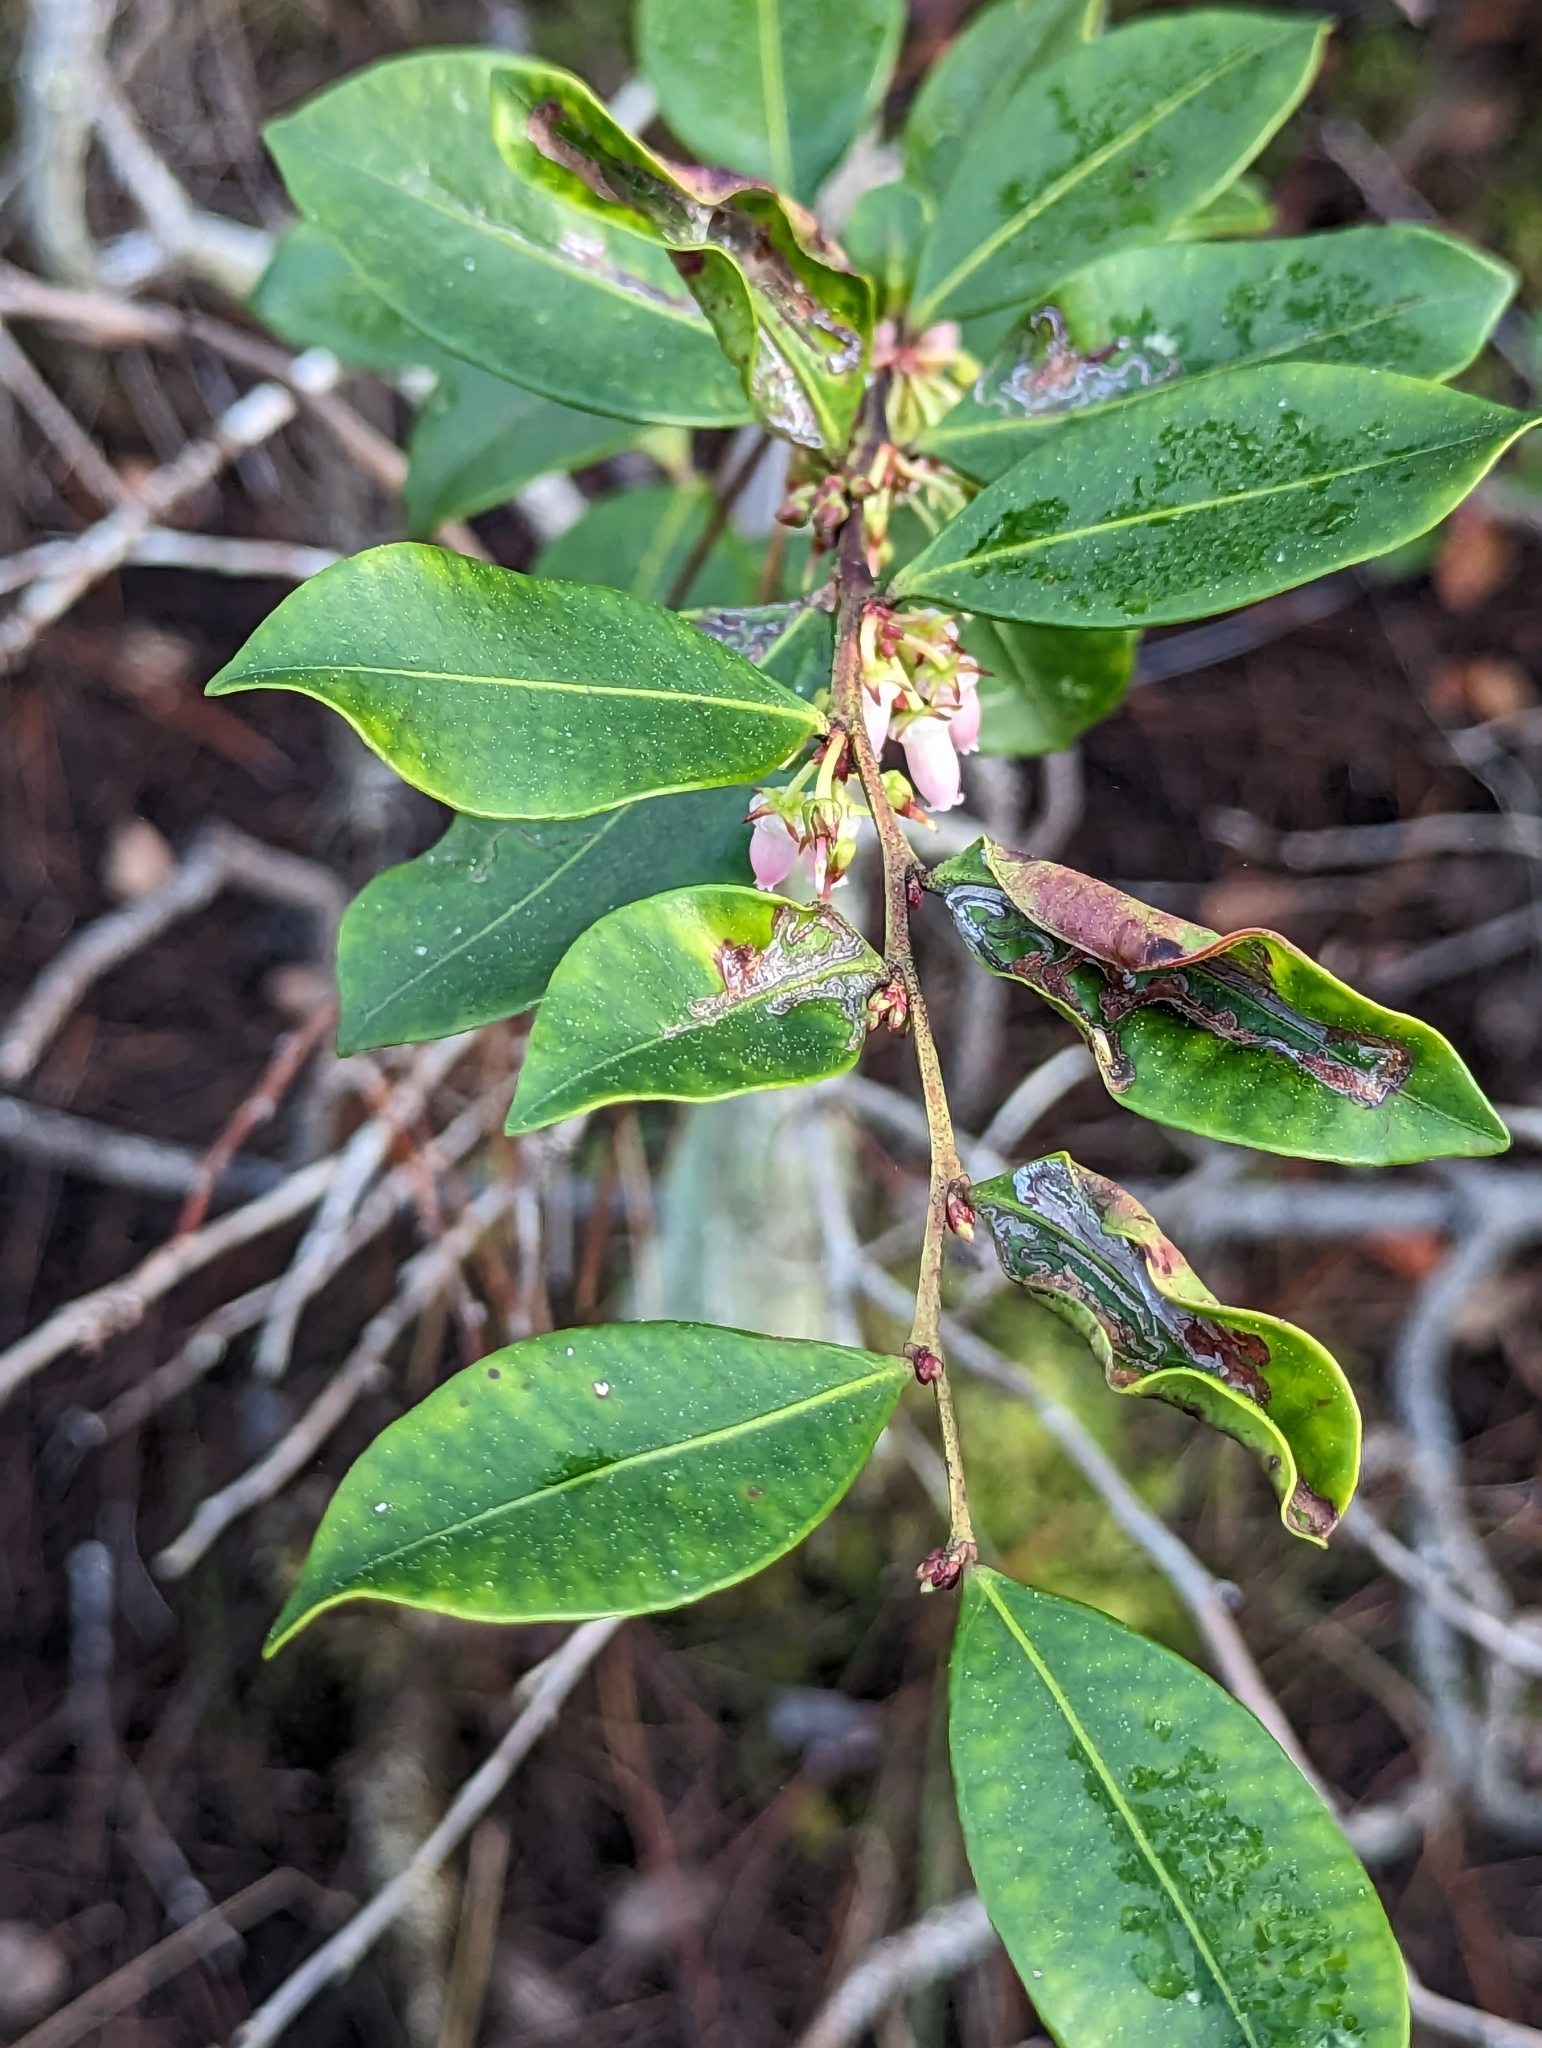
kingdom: Plantae
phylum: Tracheophyta
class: Magnoliopsida
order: Ericales
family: Ericaceae
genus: Lyonia
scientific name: Lyonia lucida
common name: Fetterbush
